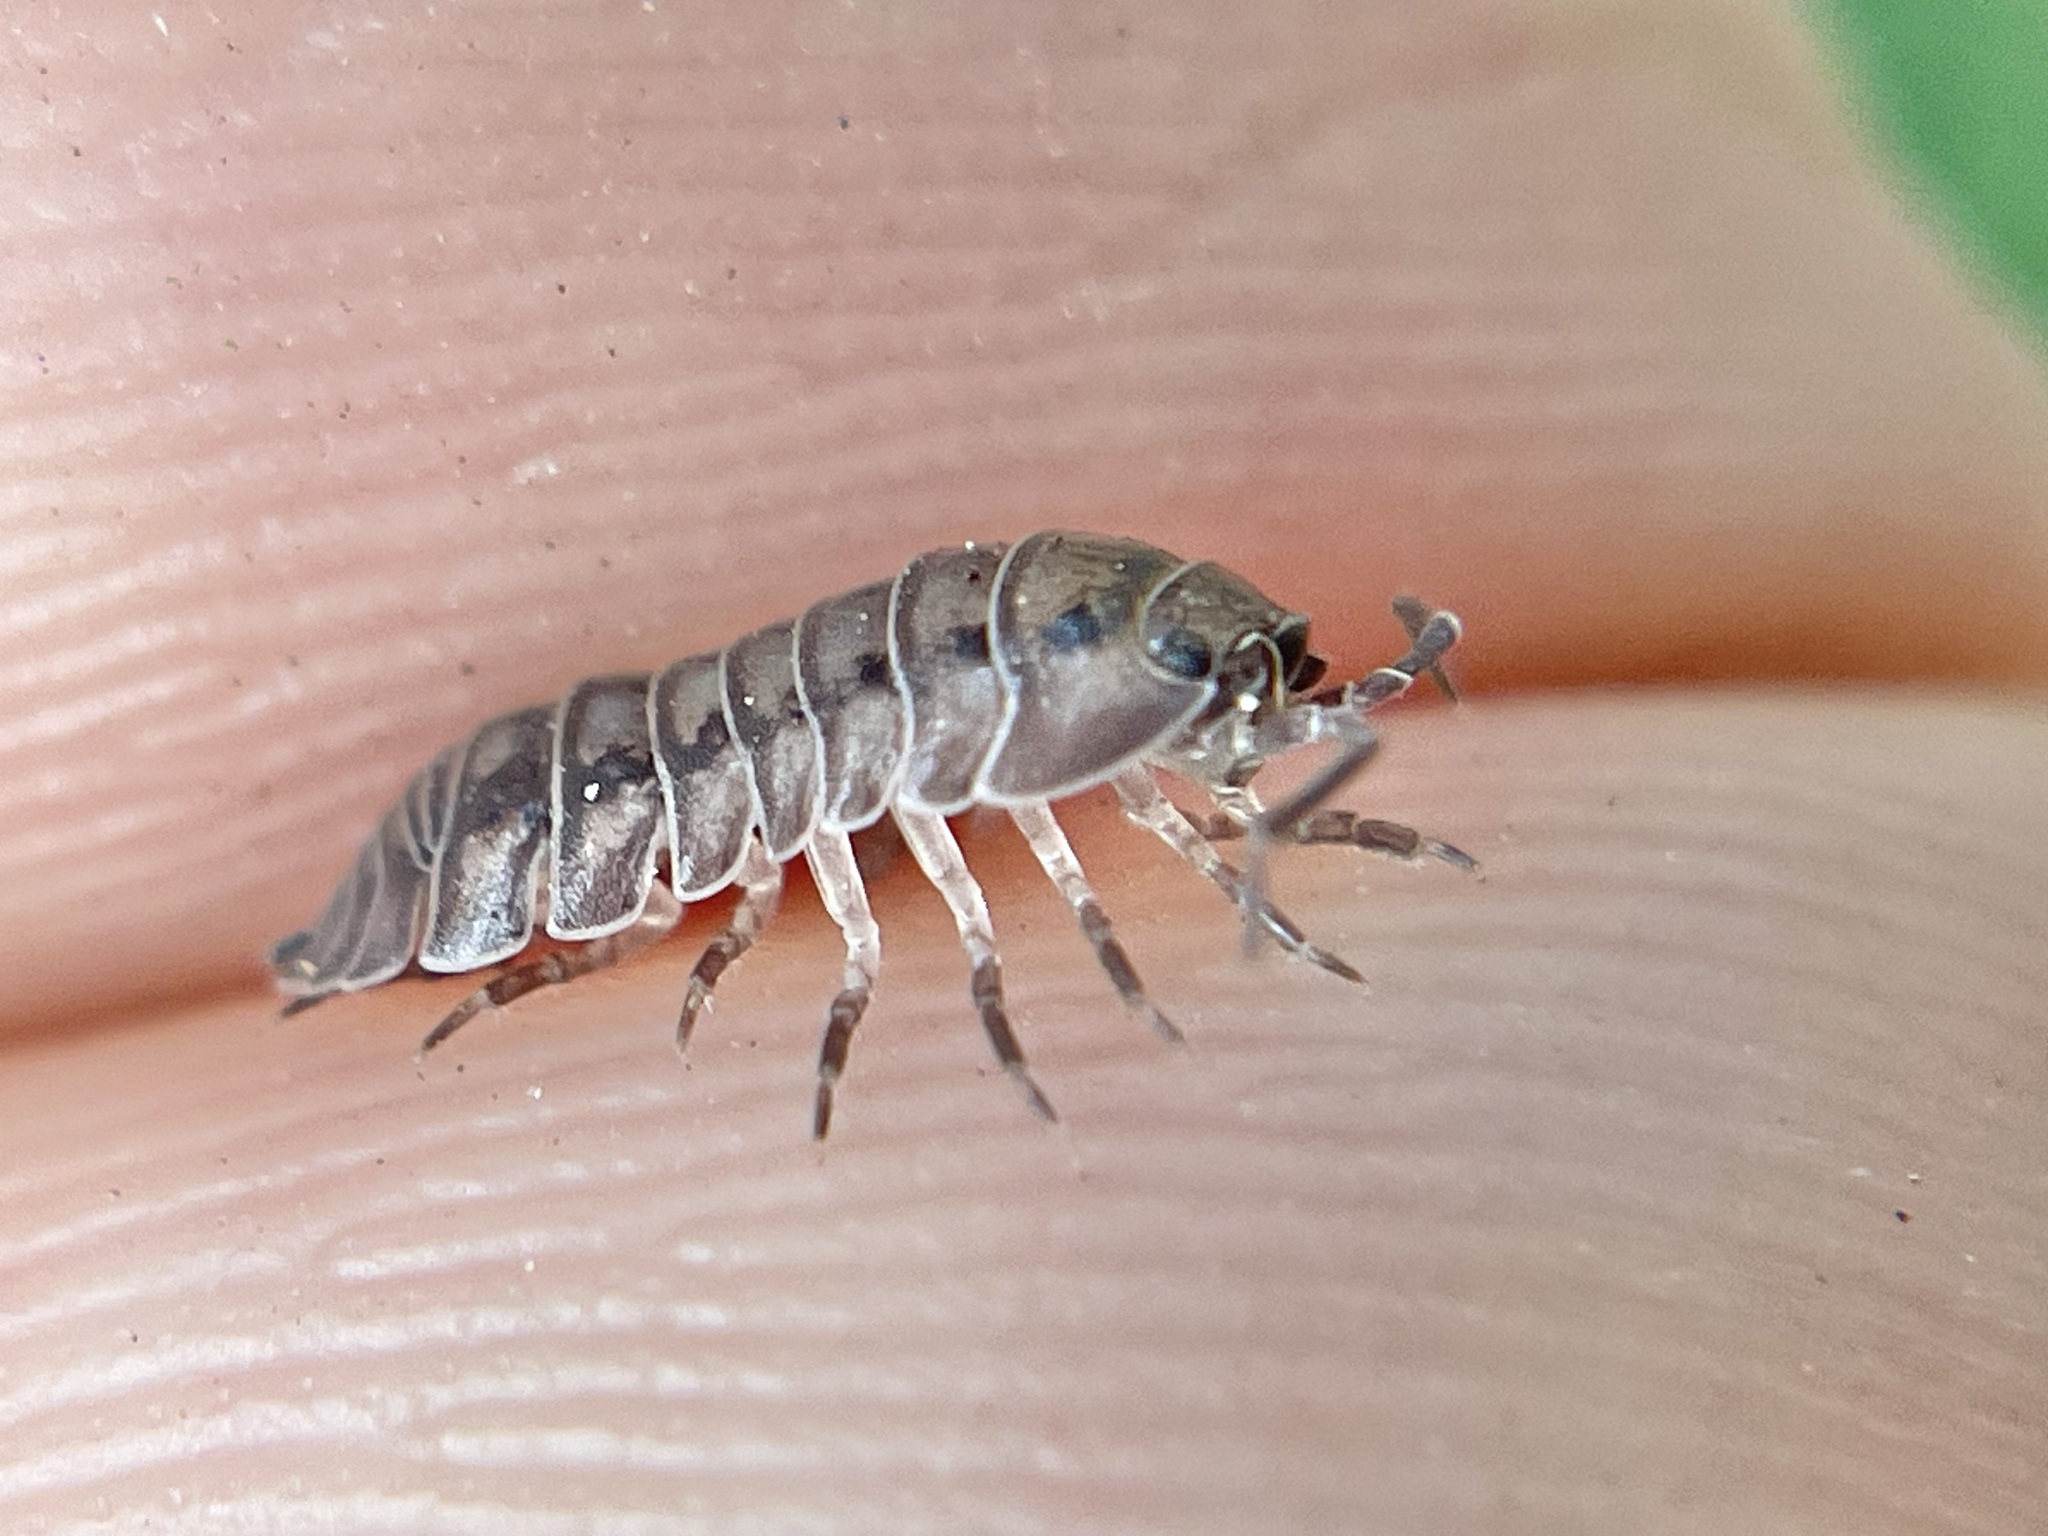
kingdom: Animalia
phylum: Arthropoda
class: Malacostraca
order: Isopoda
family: Armadillidiidae
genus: Armadillidium
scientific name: Armadillidium nasatum
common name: Isopod
